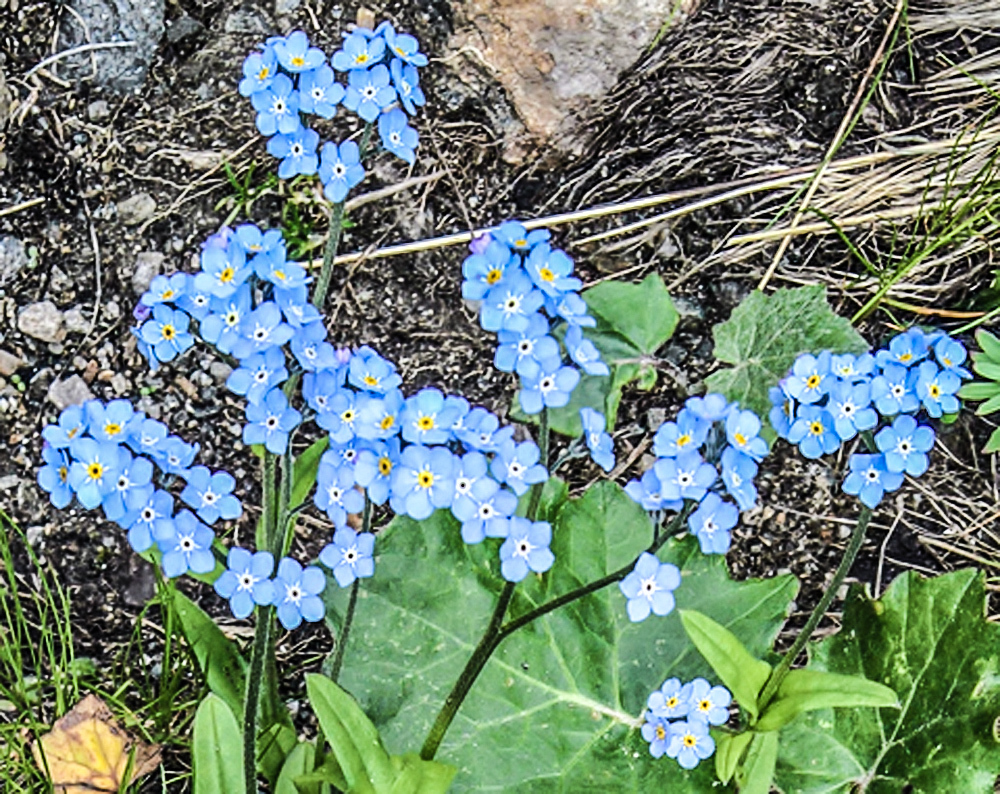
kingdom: Plantae
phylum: Tracheophyta
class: Magnoliopsida
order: Boraginales
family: Boraginaceae
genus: Myosotis
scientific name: Myosotis alpestris
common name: Alpine forget-me-not
